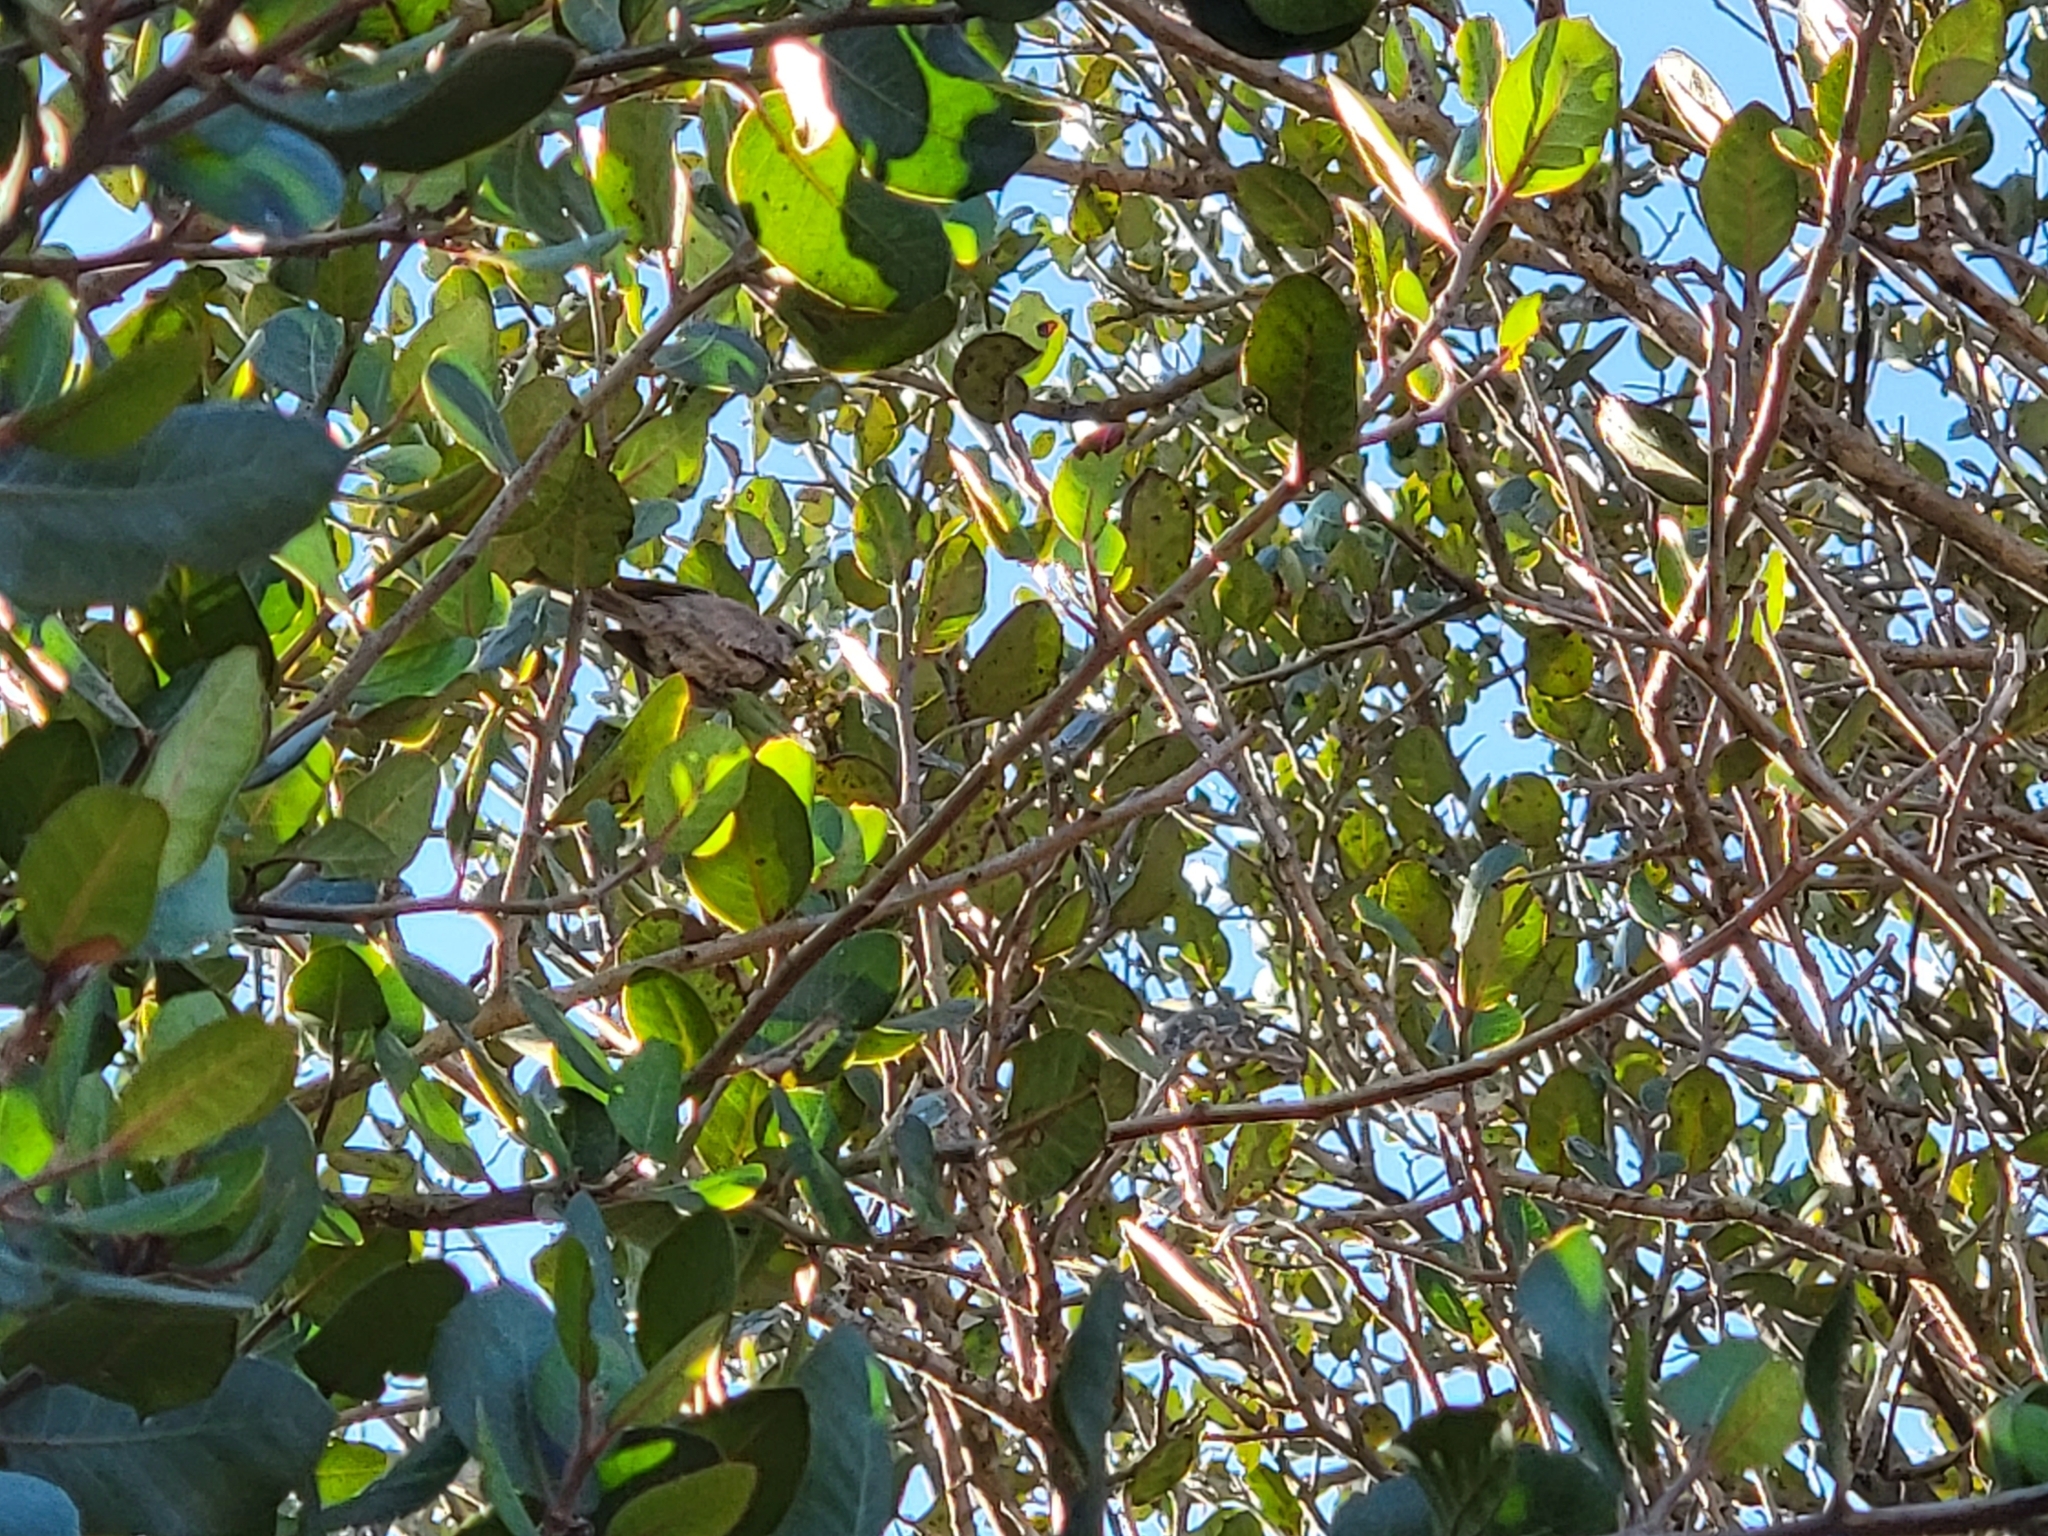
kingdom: Animalia
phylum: Chordata
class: Aves
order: Passeriformes
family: Aegithalidae
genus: Psaltriparus
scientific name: Psaltriparus minimus
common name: American bushtit
